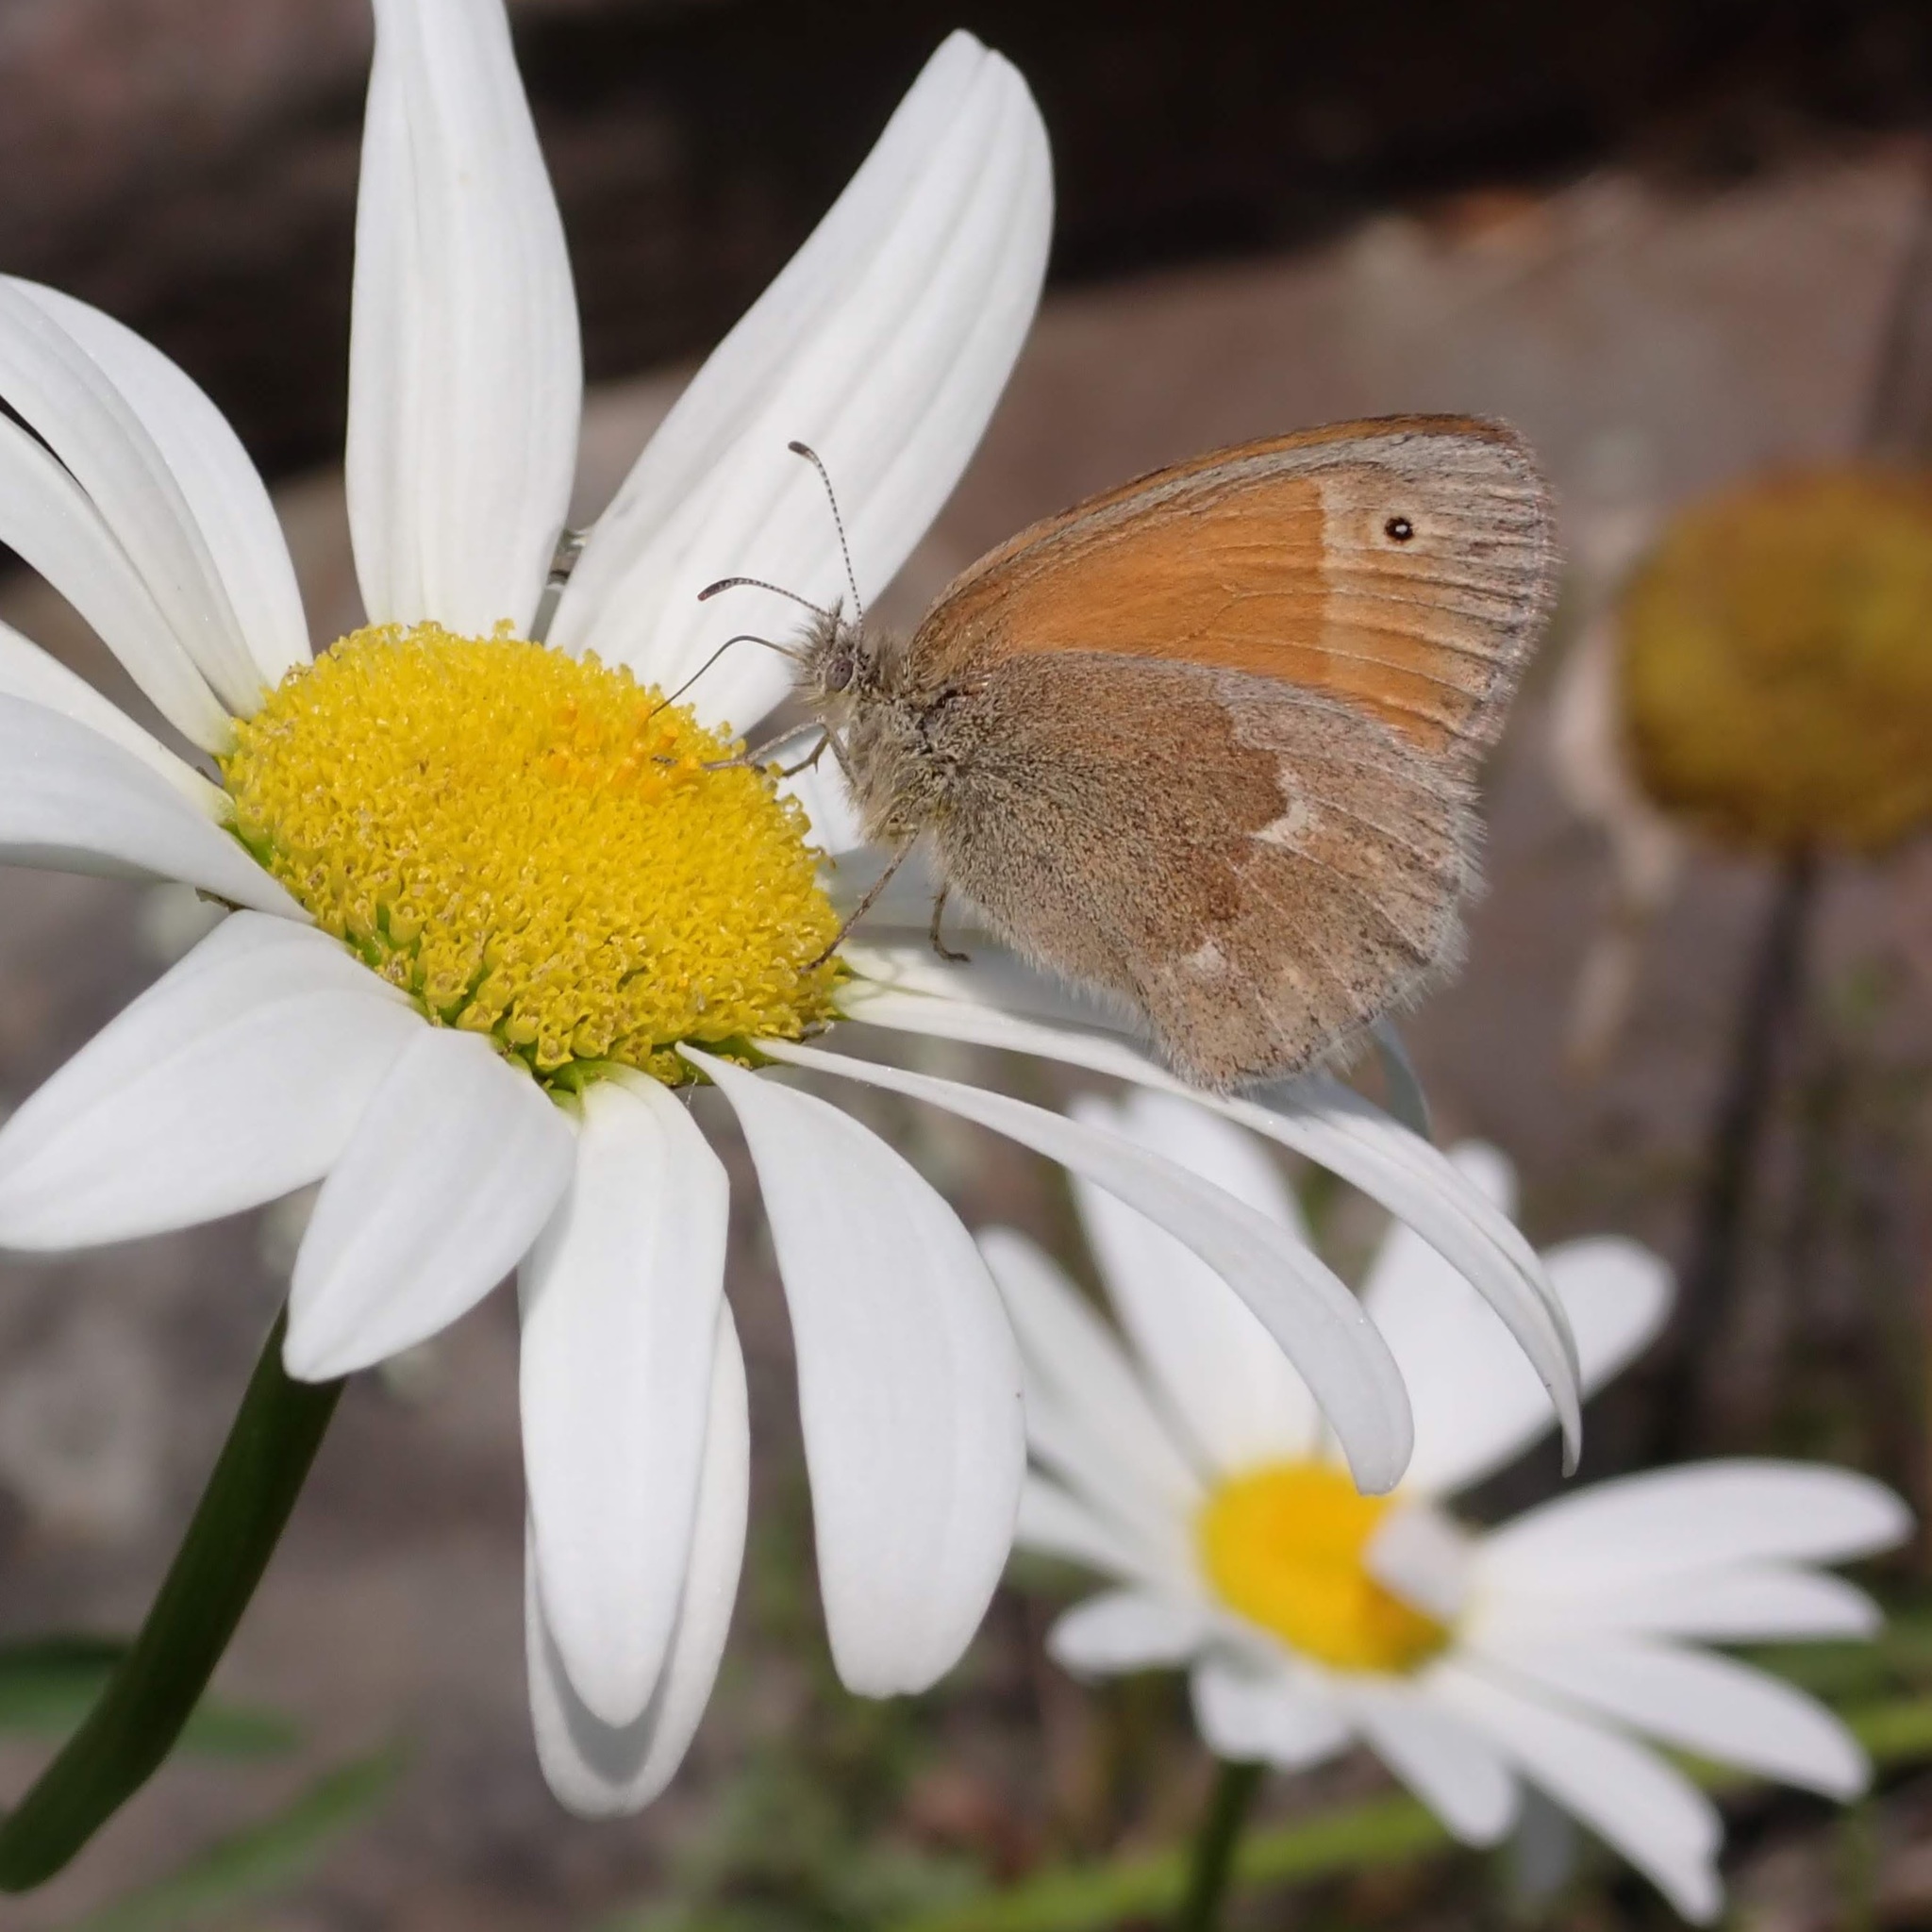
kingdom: Animalia
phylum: Arthropoda
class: Insecta
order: Lepidoptera
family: Nymphalidae
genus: Coenonympha
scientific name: Coenonympha california
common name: Common ringlet
